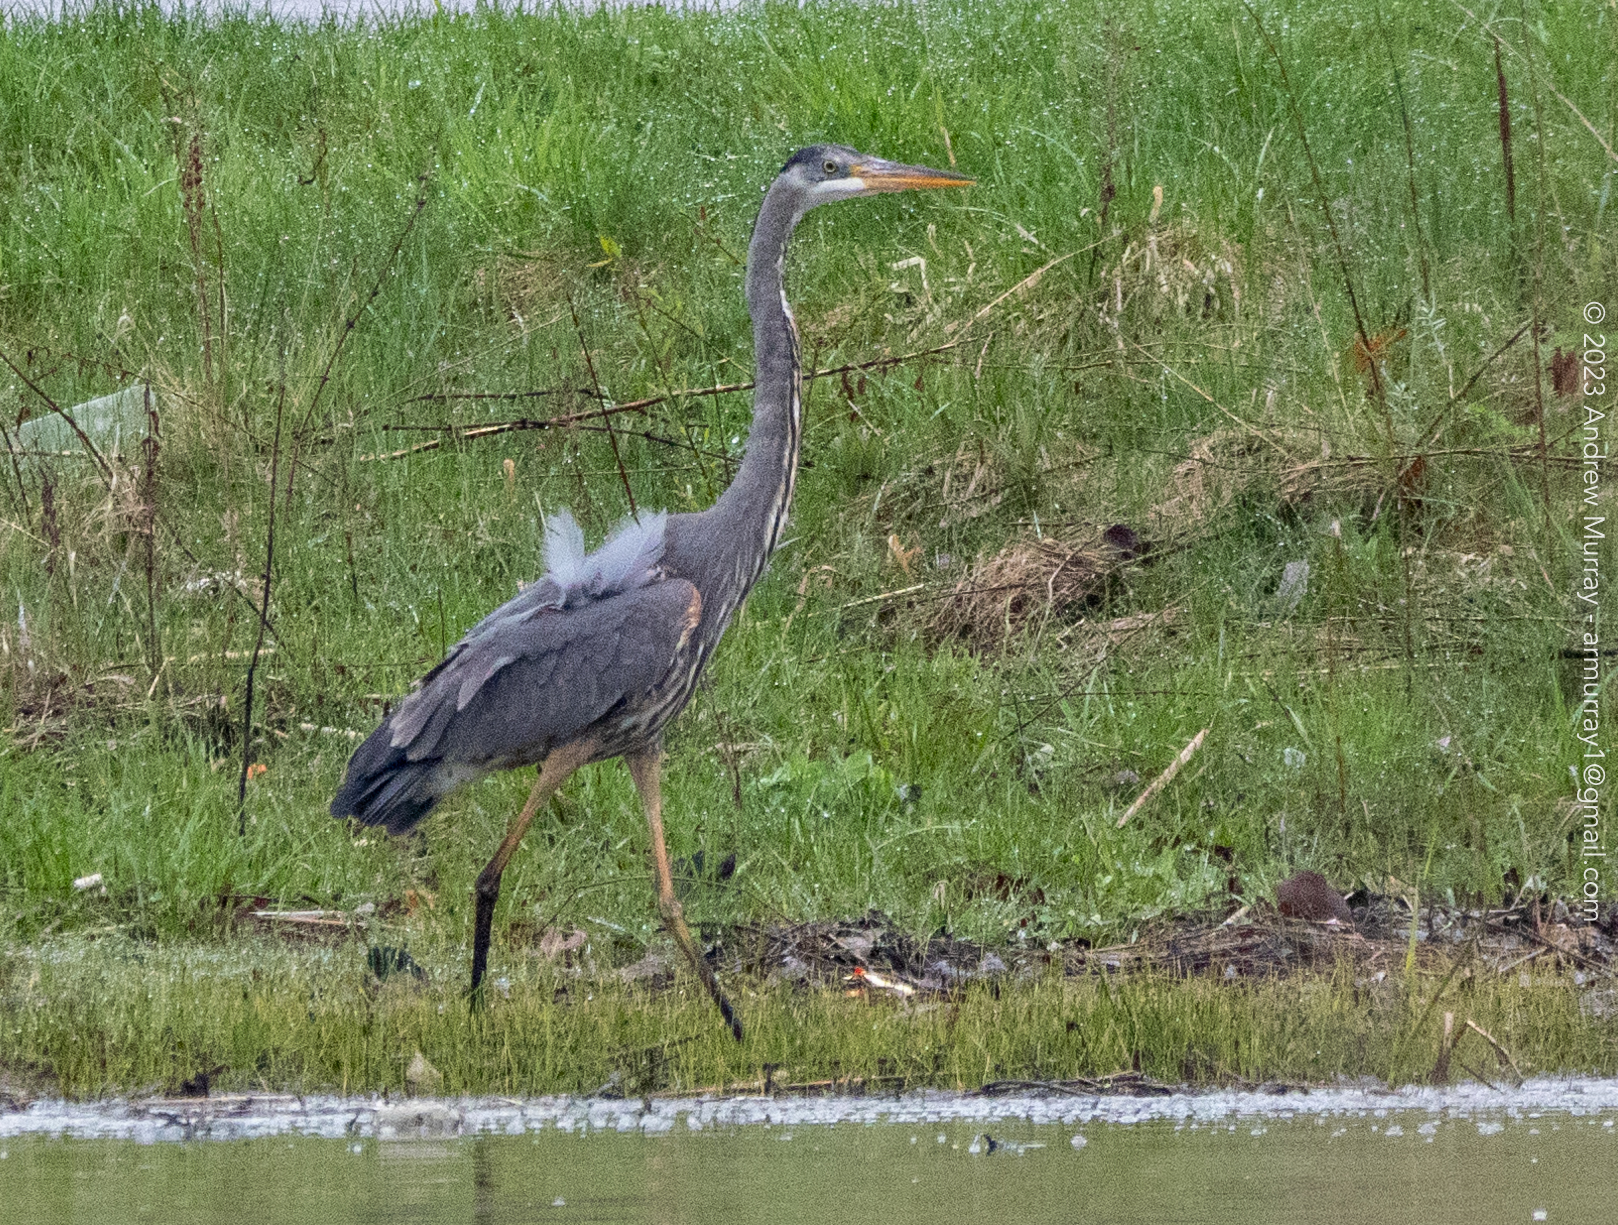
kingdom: Animalia
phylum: Chordata
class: Aves
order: Pelecaniformes
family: Ardeidae
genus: Ardea
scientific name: Ardea herodias
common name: Great blue heron
